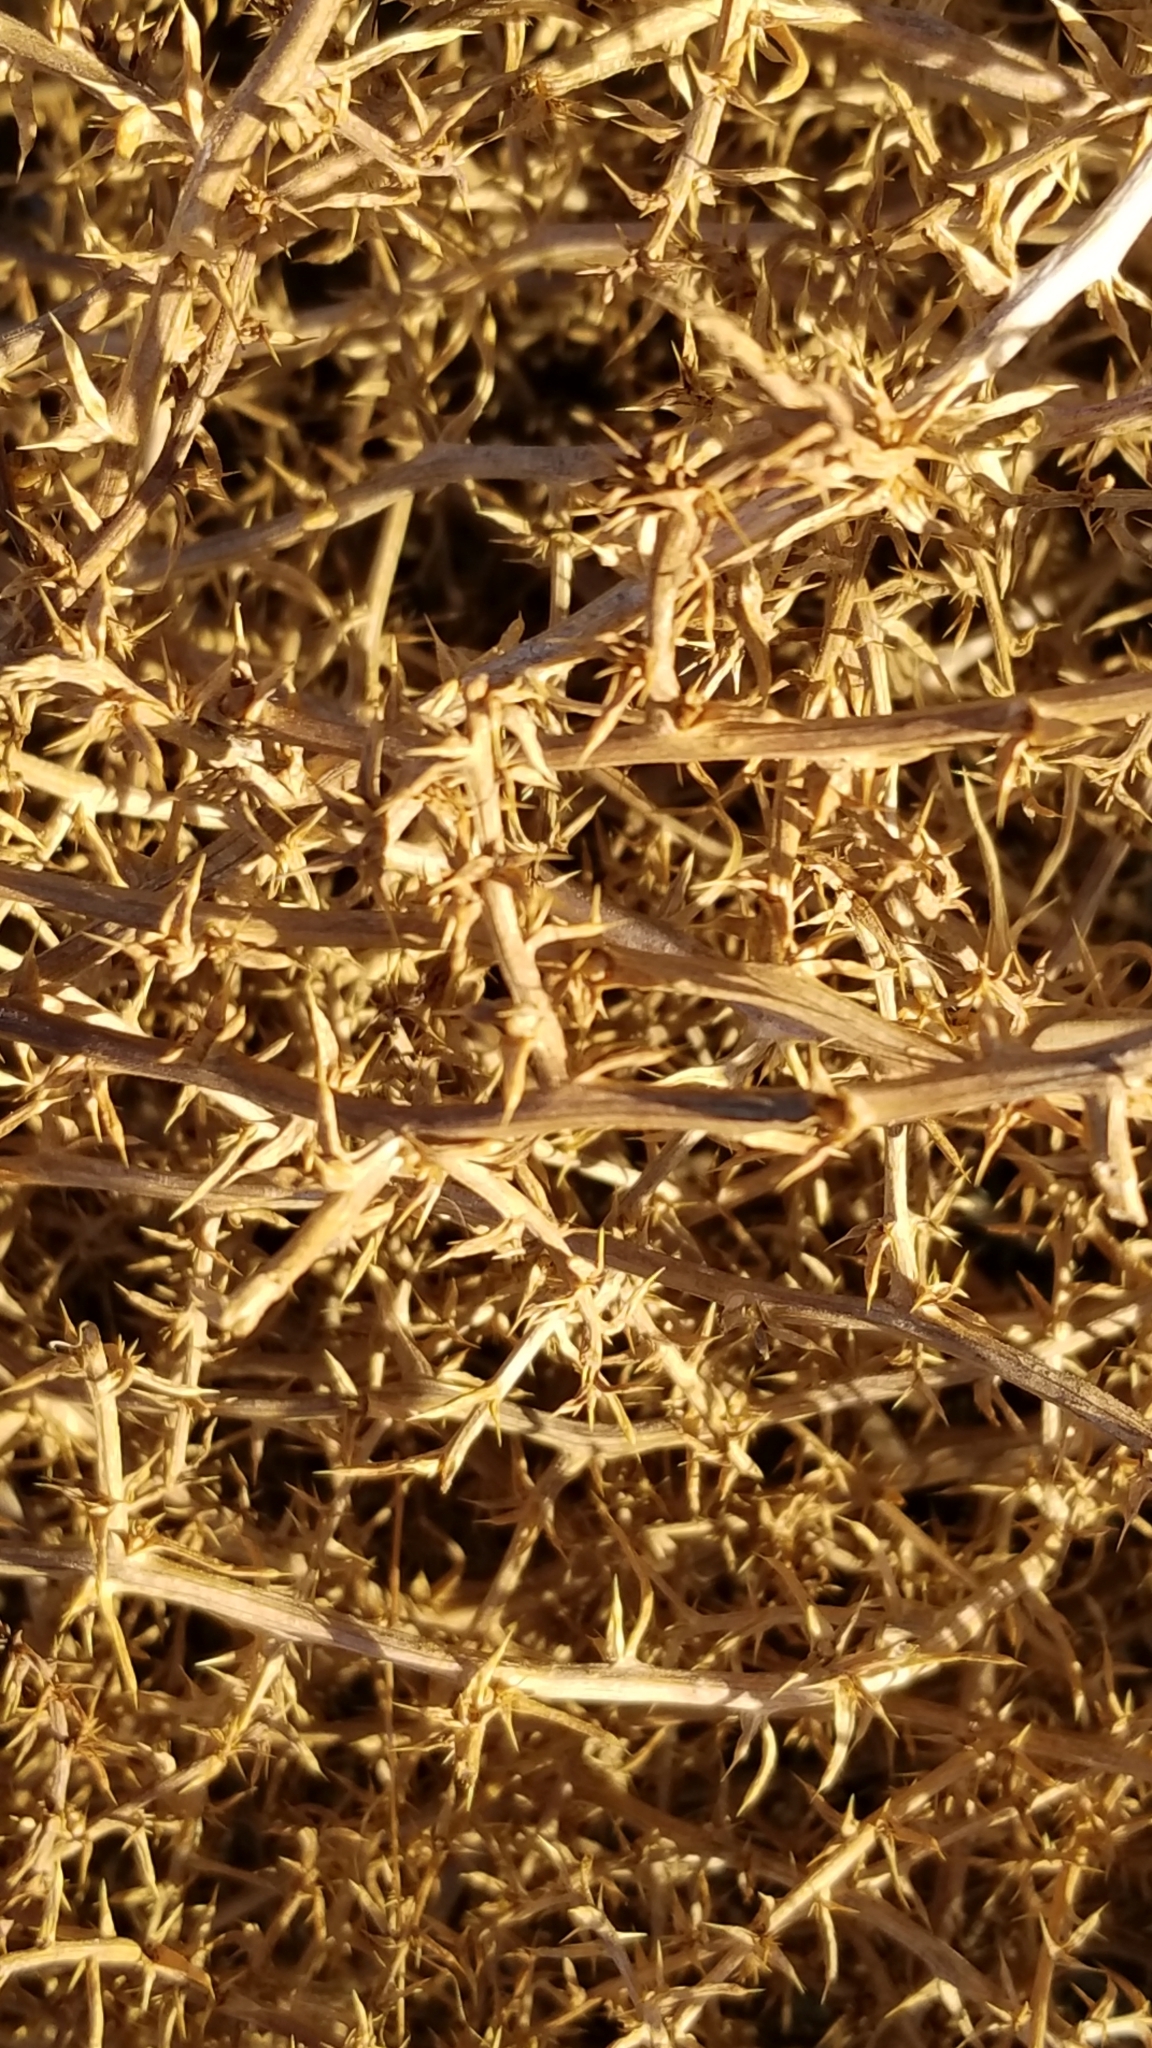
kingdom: Plantae
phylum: Tracheophyta
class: Magnoliopsida
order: Caryophyllales
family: Amaranthaceae
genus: Salsola
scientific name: Salsola tragus
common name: Prickly russian thistle
